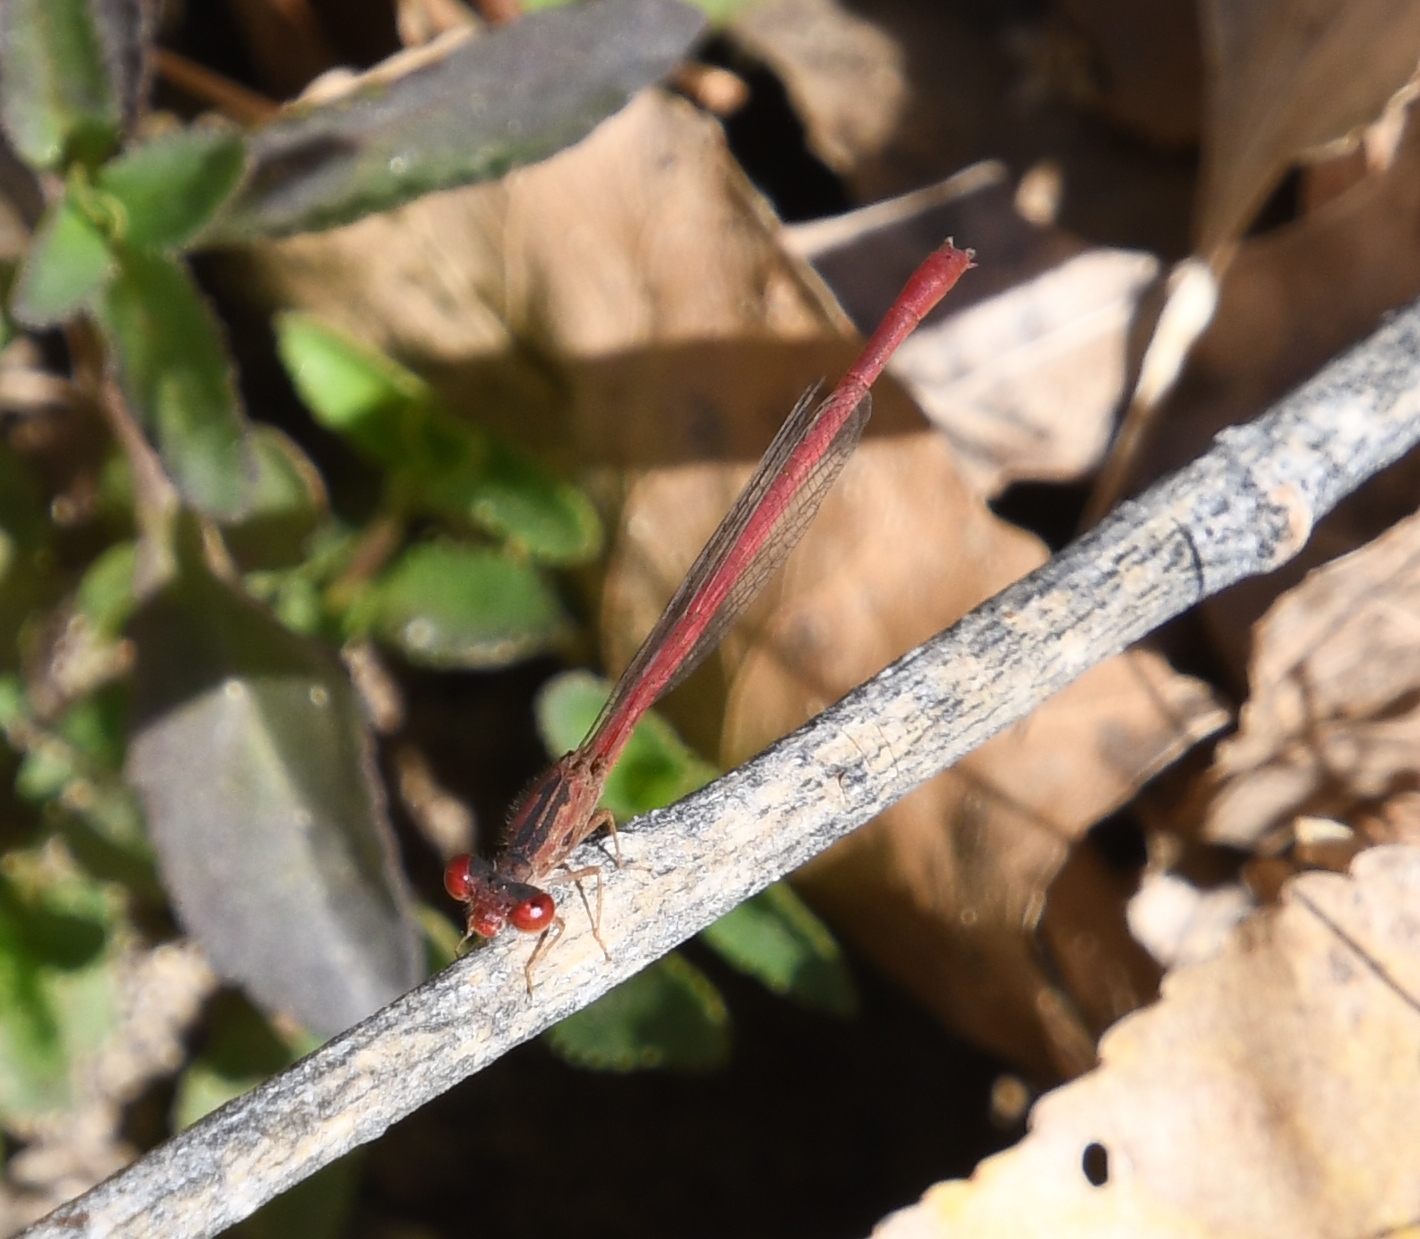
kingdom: Animalia
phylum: Arthropoda
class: Insecta
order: Odonata
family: Coenagrionidae
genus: Telebasis
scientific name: Telebasis salva
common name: Desert firetail
